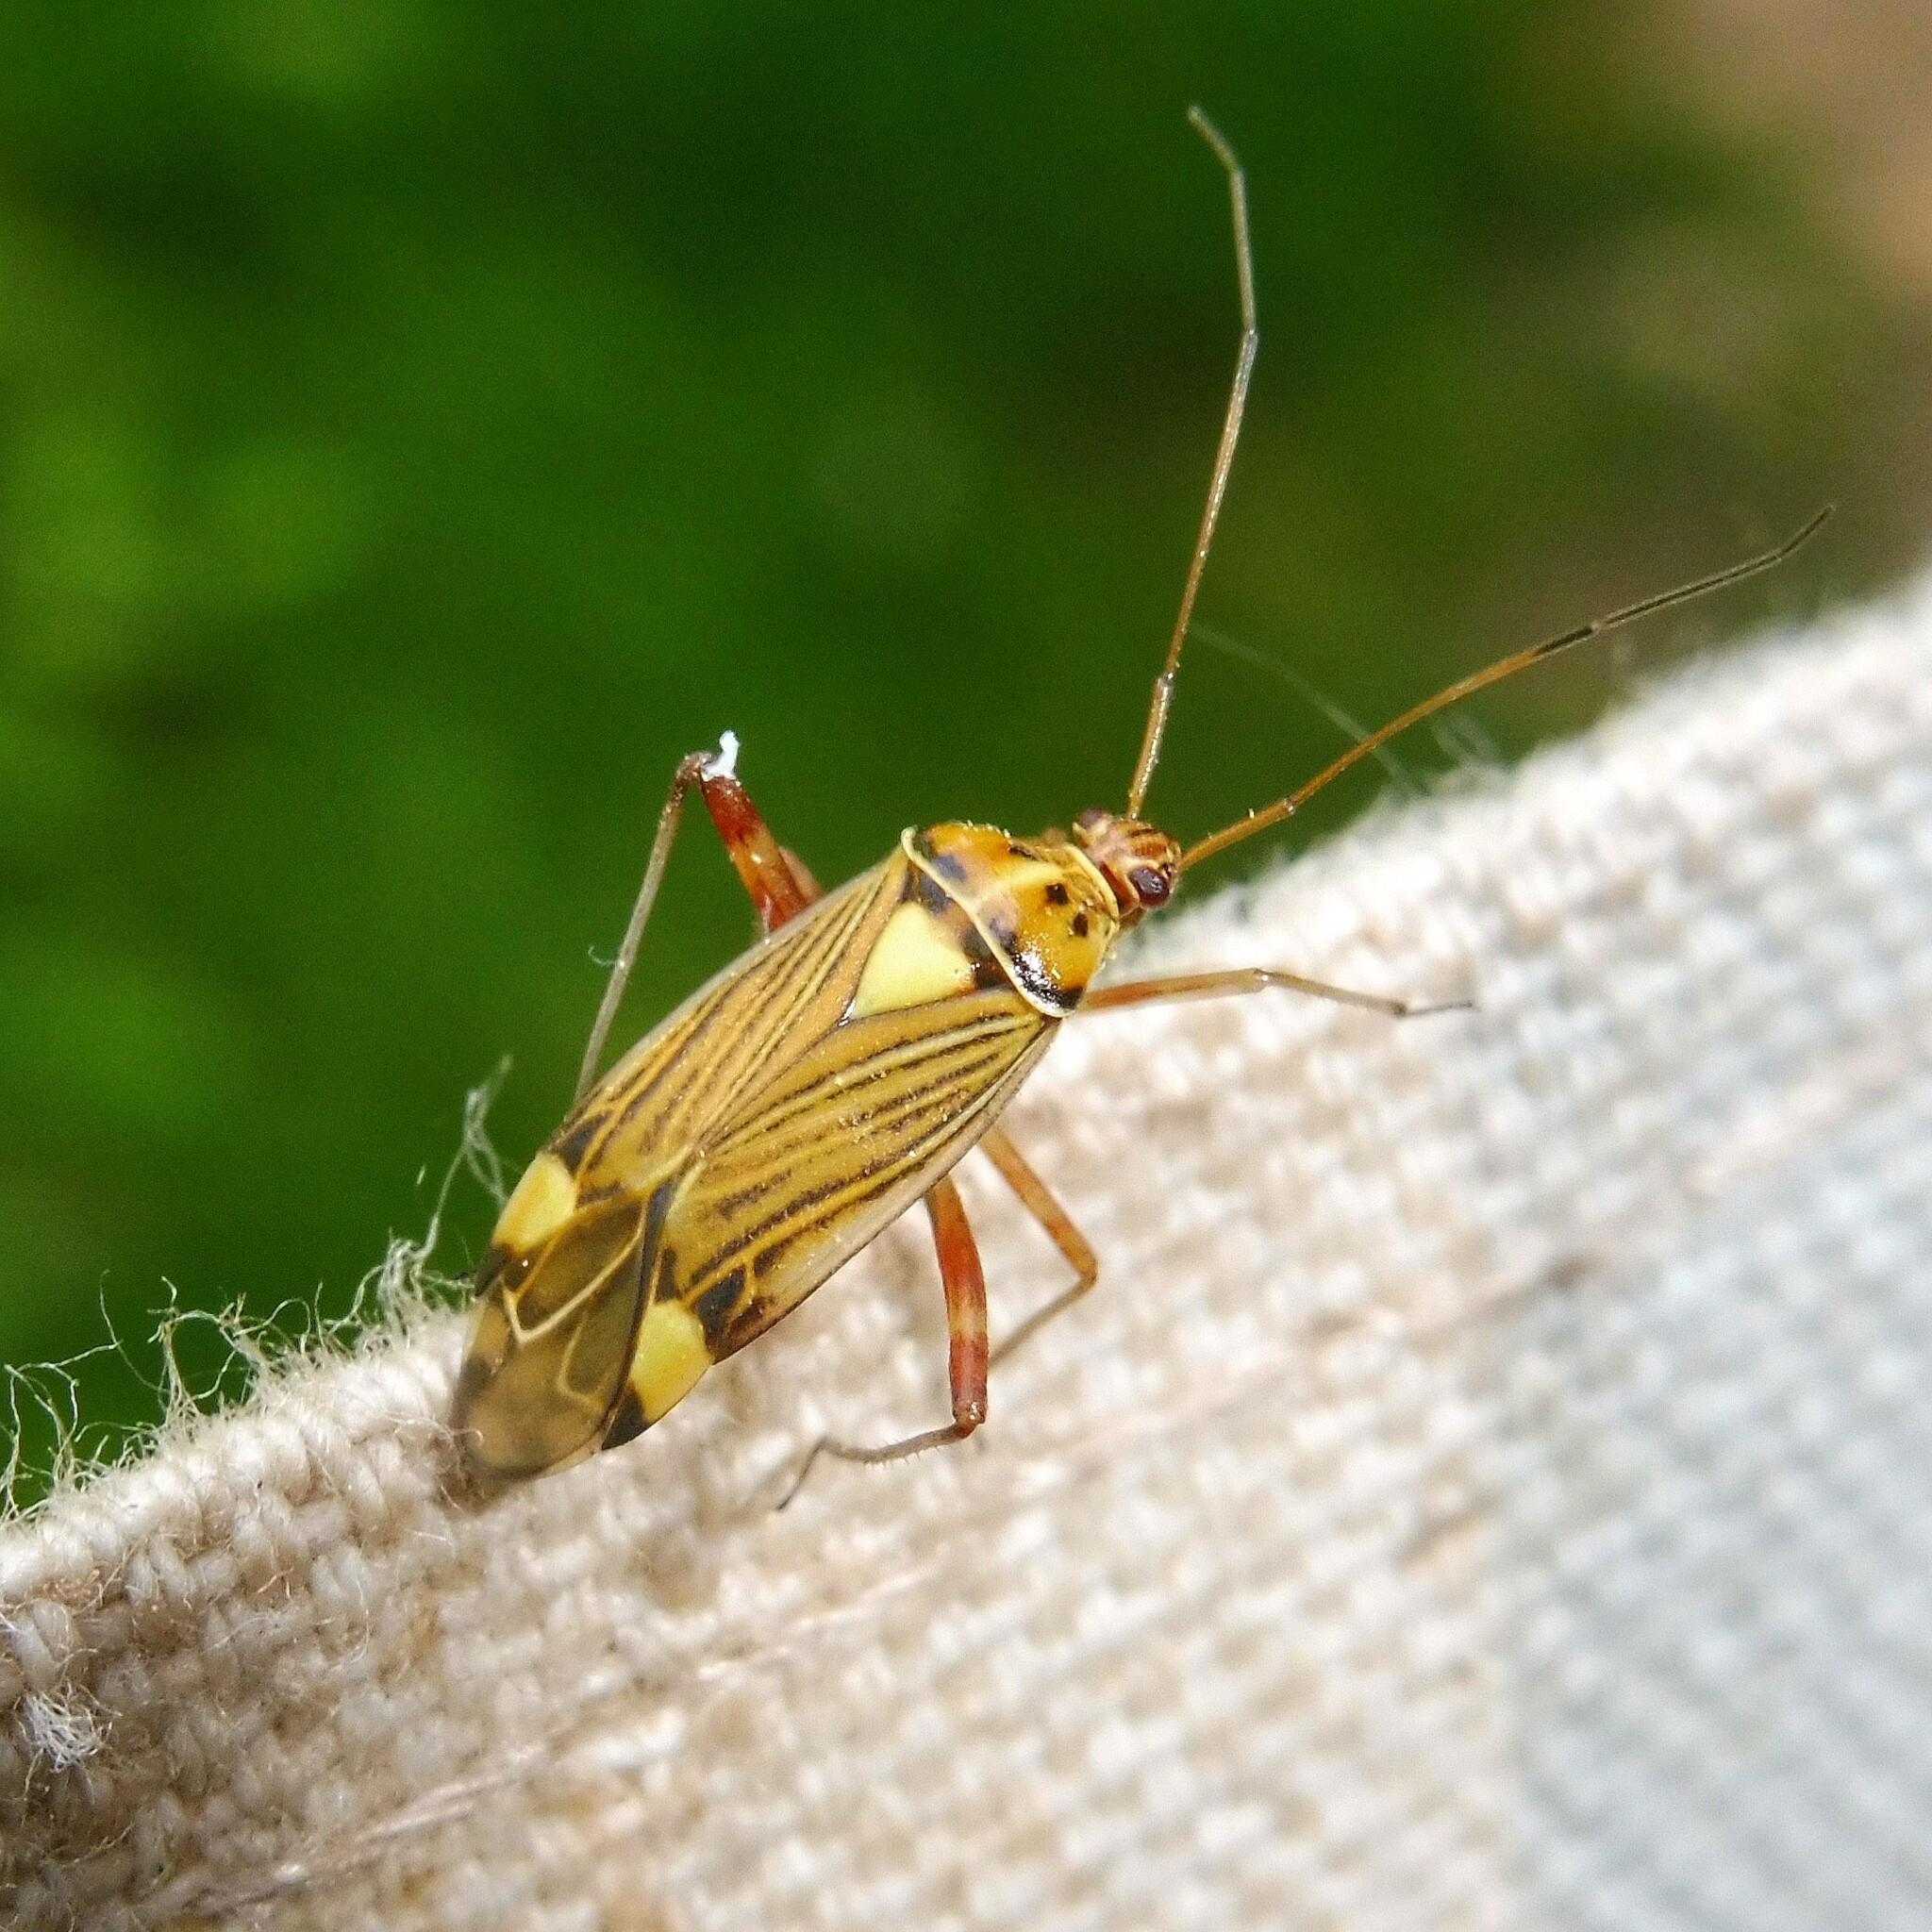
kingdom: Animalia
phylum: Arthropoda
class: Insecta
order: Hemiptera
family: Miridae
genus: Rhabdomiris
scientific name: Rhabdomiris striatellus
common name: Plant bug
